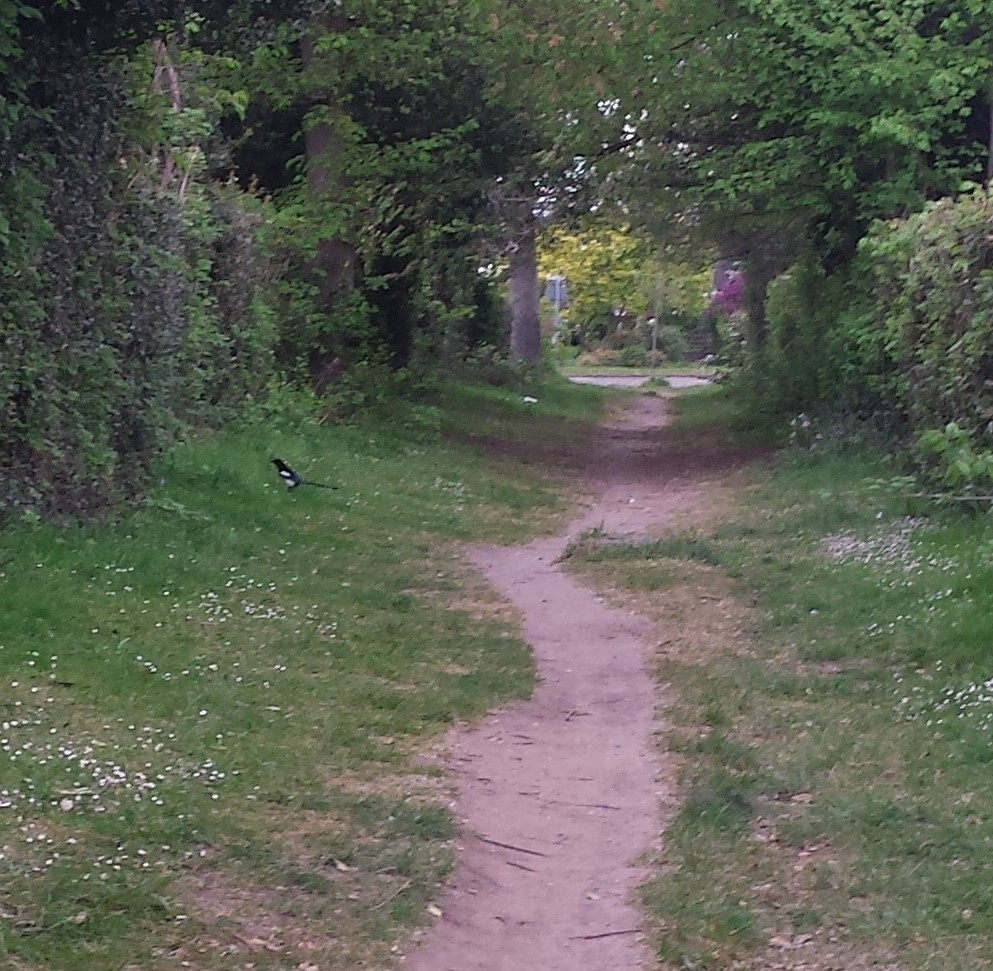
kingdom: Animalia
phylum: Chordata
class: Aves
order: Passeriformes
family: Corvidae
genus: Pica
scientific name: Pica pica
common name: Eurasian magpie
